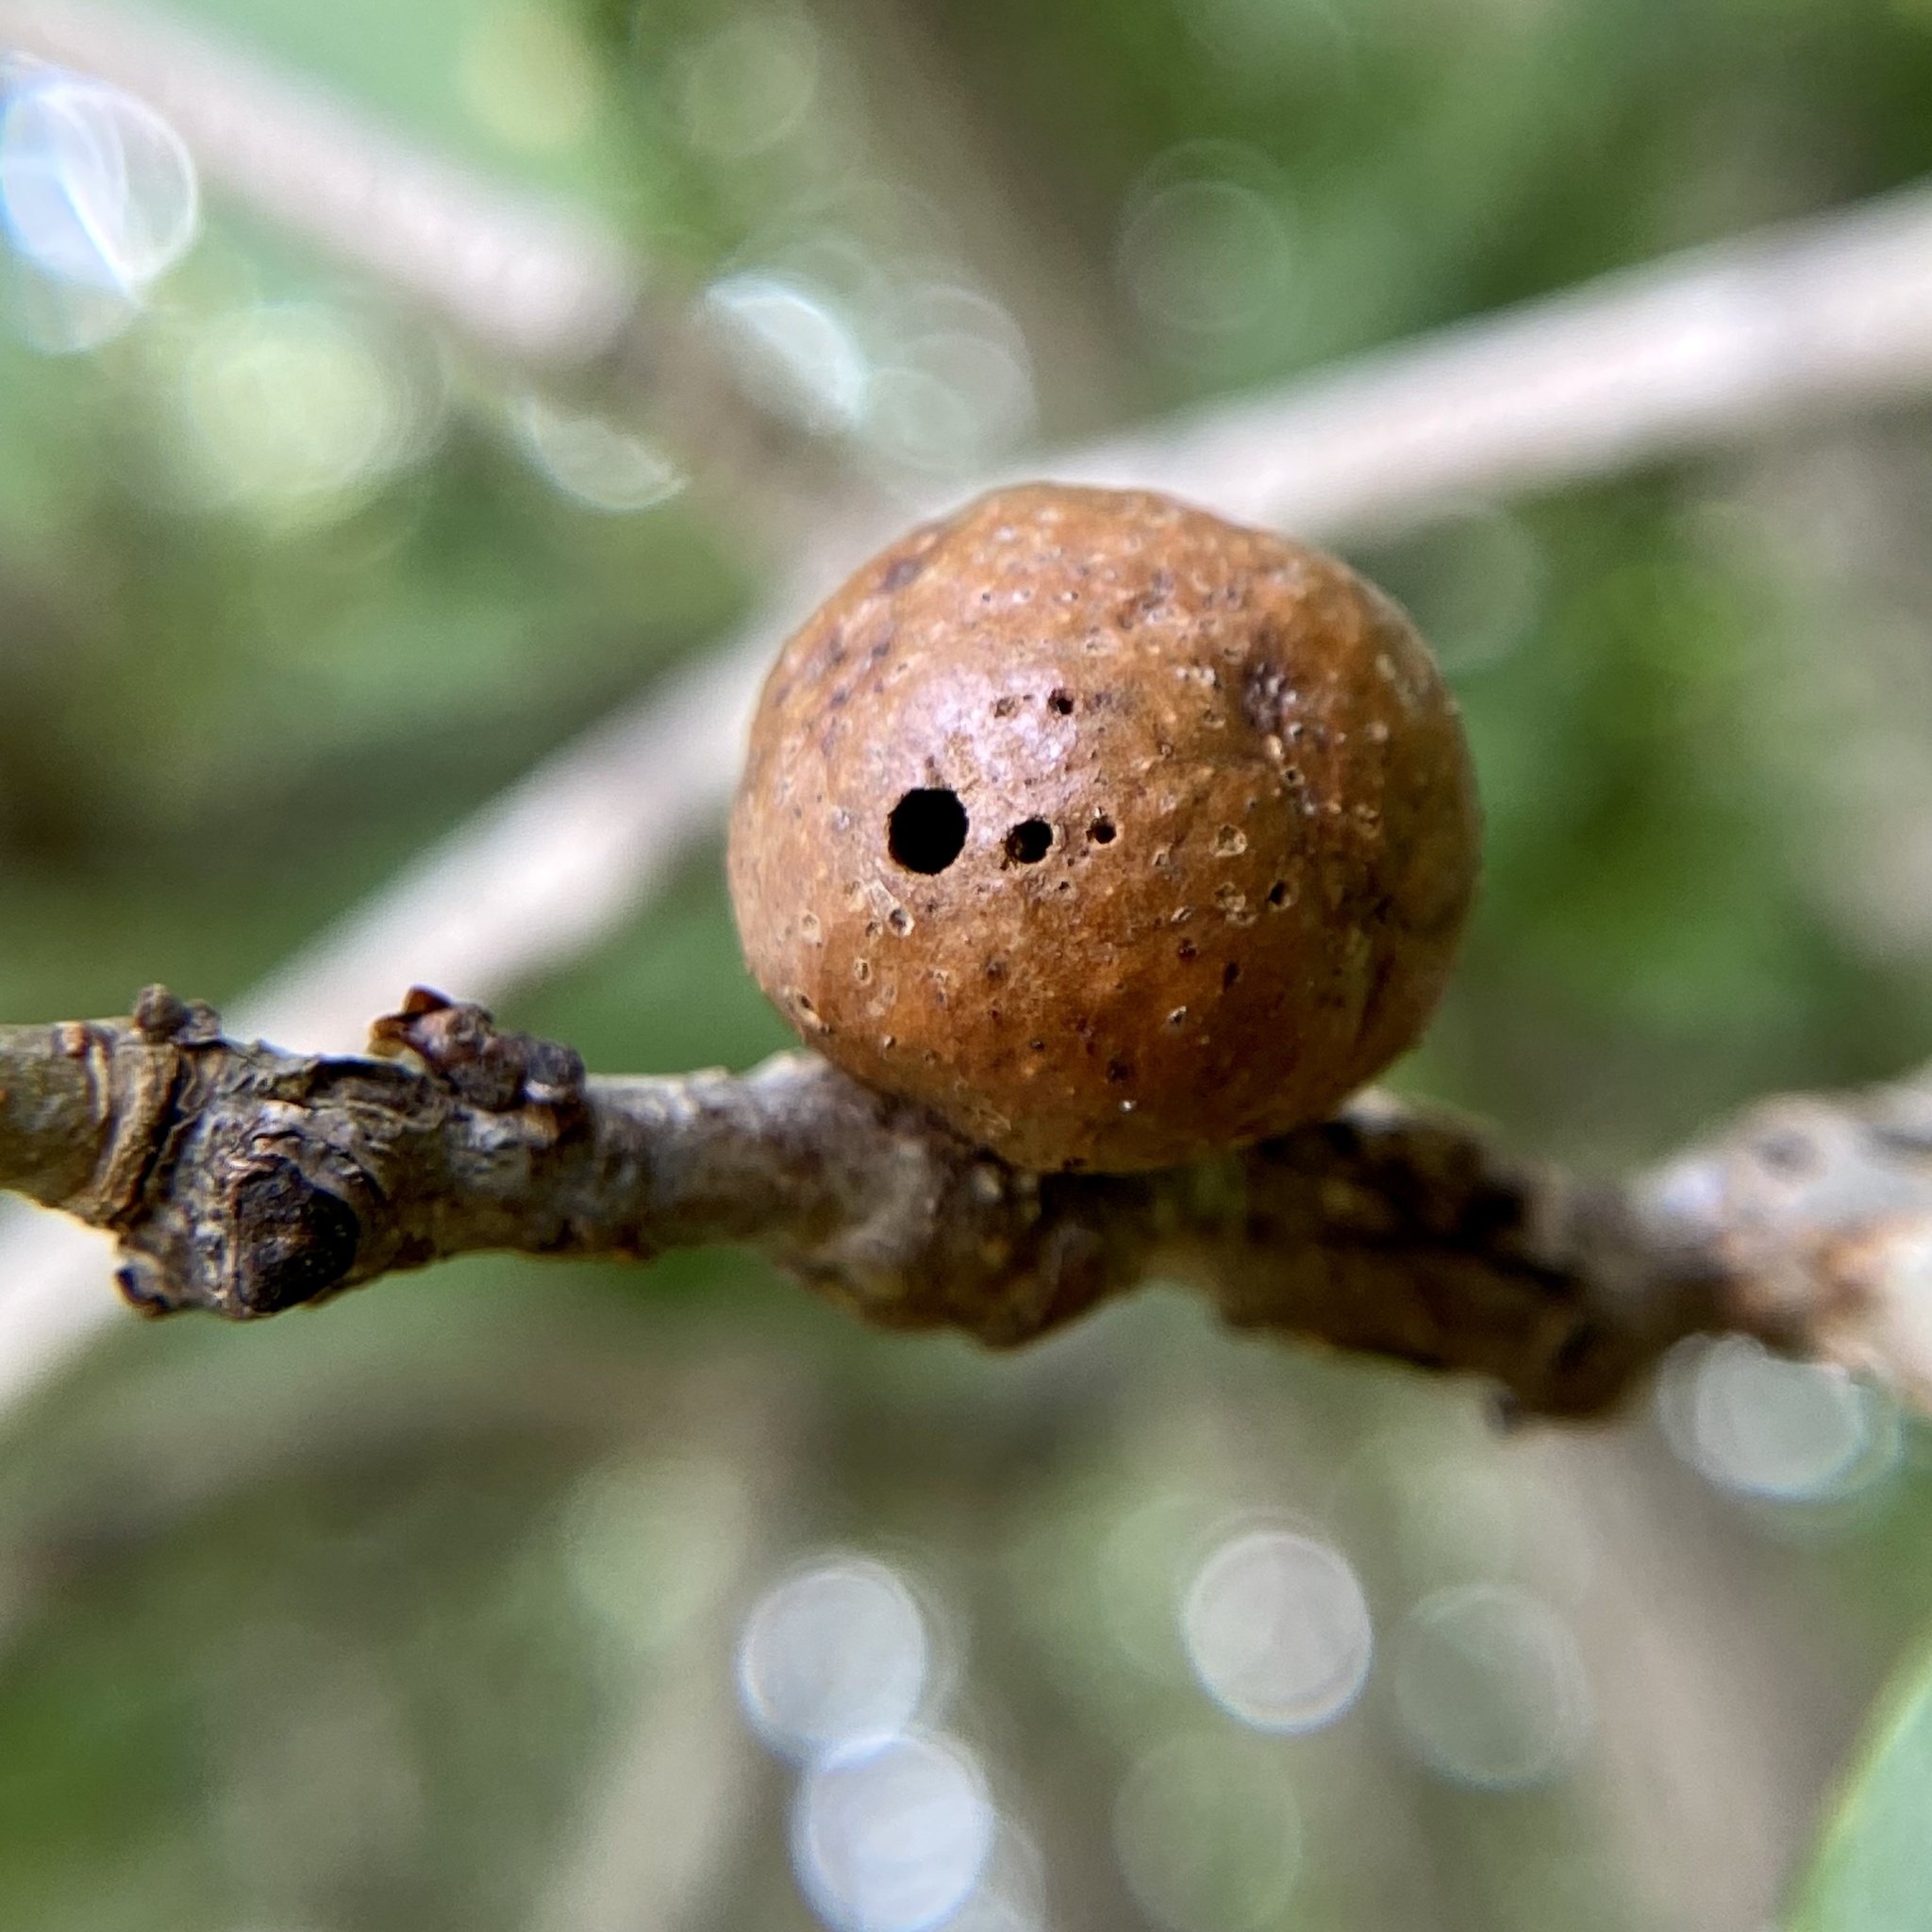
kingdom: Animalia
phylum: Arthropoda
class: Insecta
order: Hymenoptera
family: Cynipidae
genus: Disholcaspis
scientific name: Disholcaspis quercusglobulus
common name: Round bullet gall wasp
